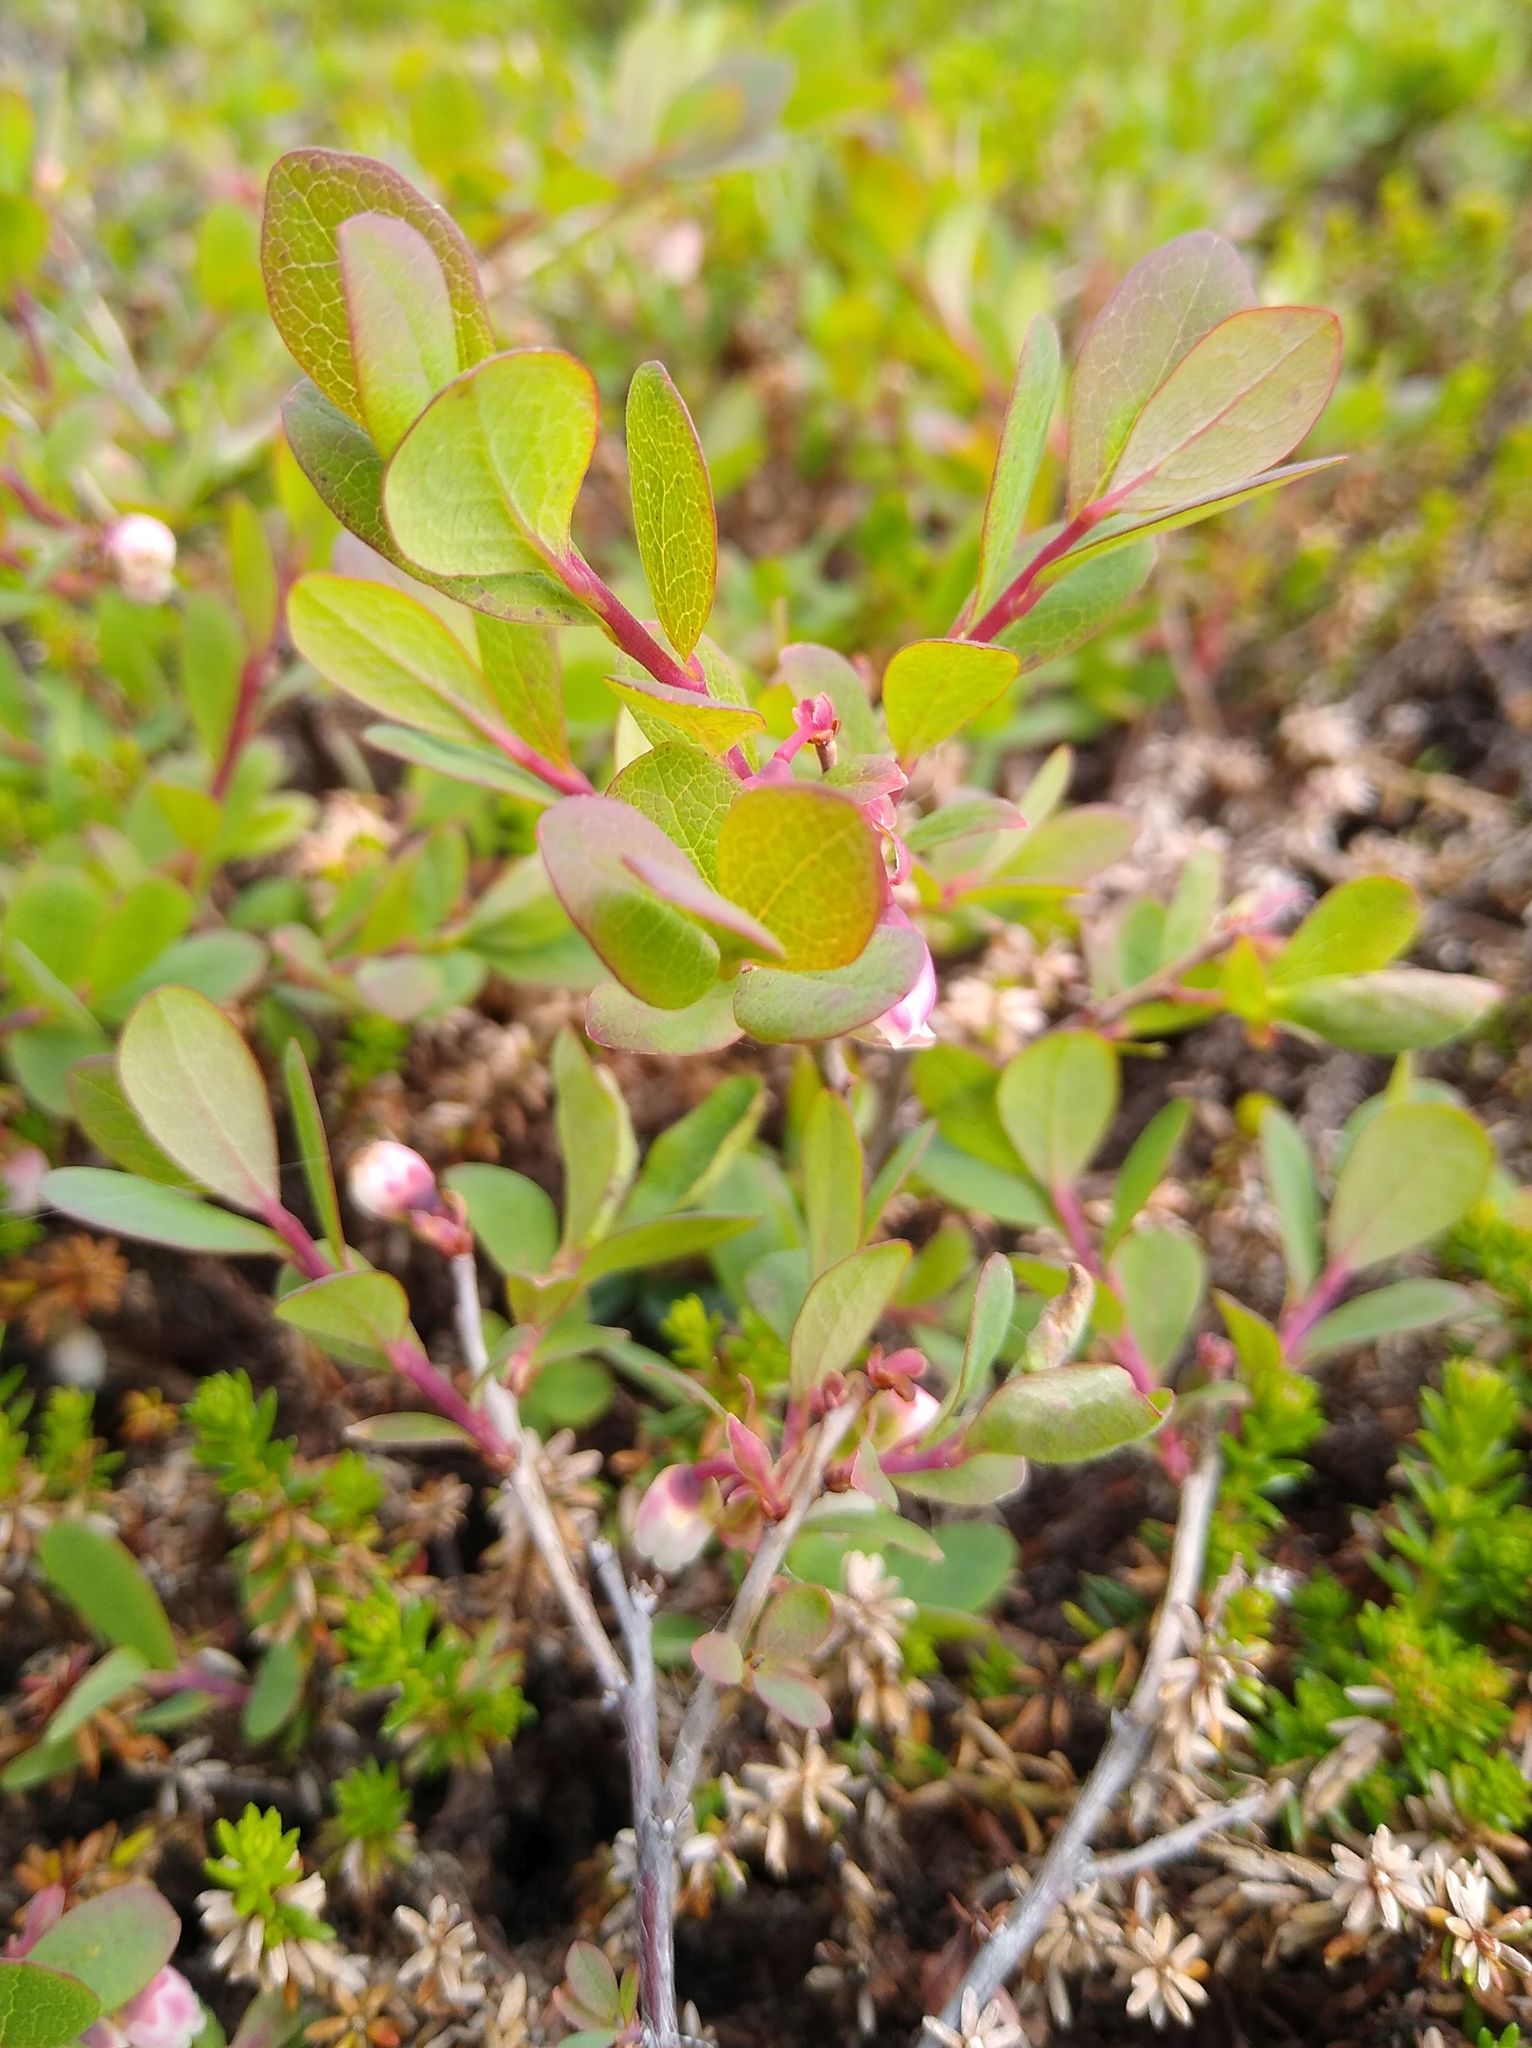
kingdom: Plantae
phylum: Tracheophyta
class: Magnoliopsida
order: Ericales
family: Ericaceae
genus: Vaccinium
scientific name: Vaccinium uliginosum
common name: Bog bilberry
